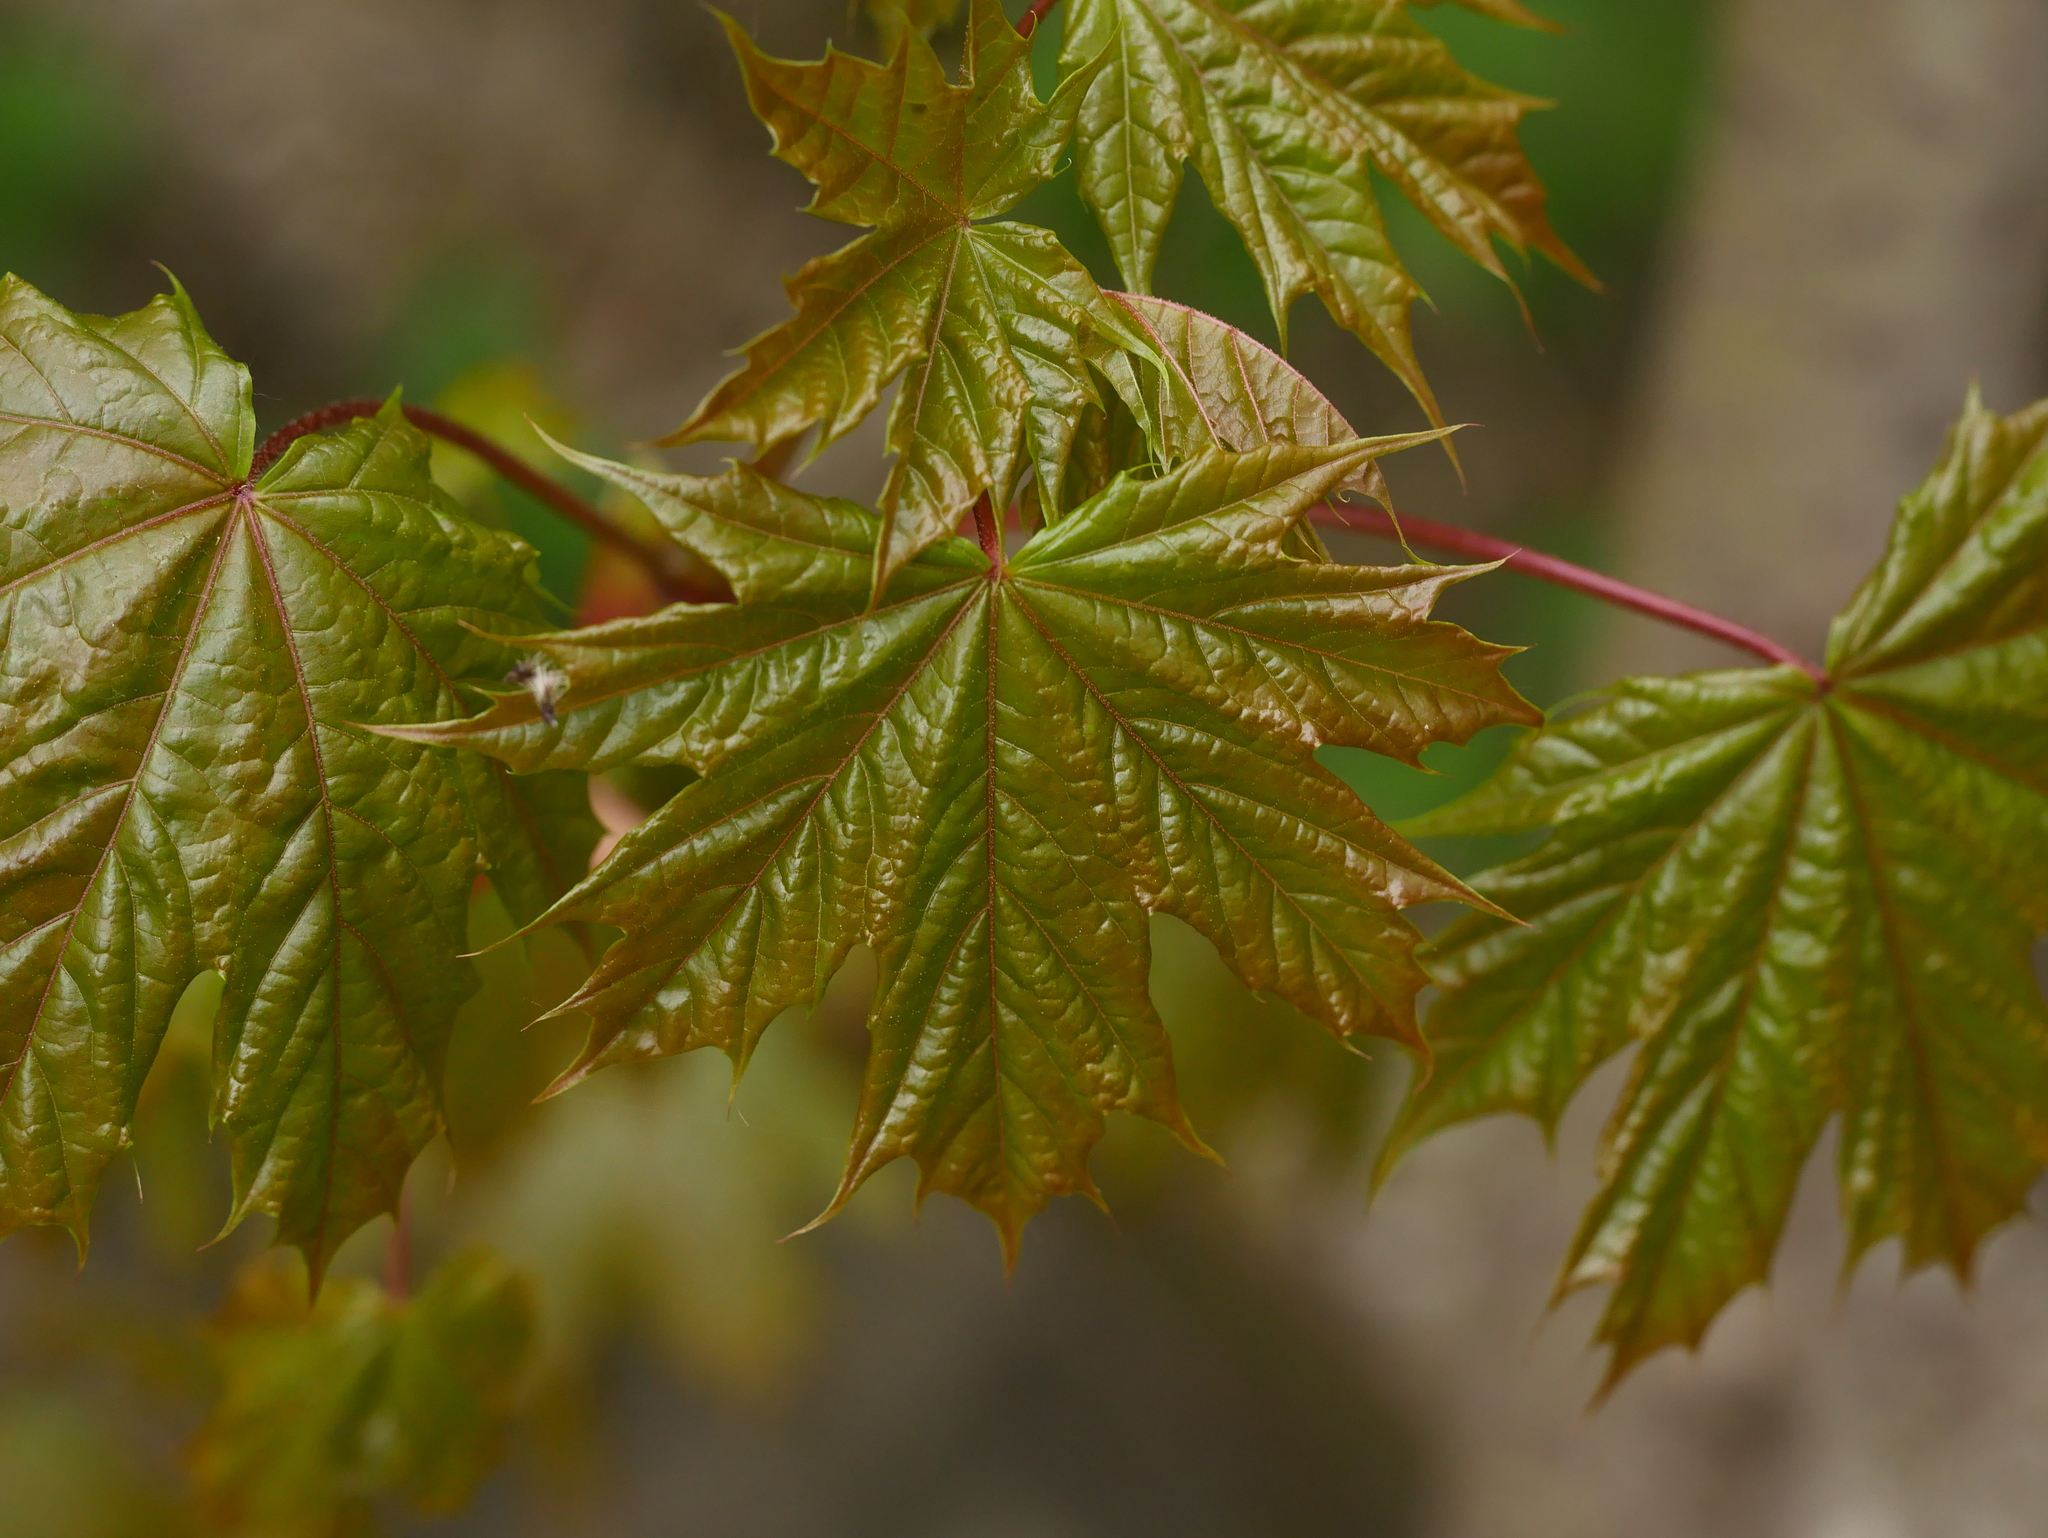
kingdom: Plantae
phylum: Tracheophyta
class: Magnoliopsida
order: Sapindales
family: Sapindaceae
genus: Acer
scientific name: Acer platanoides
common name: Norway maple
